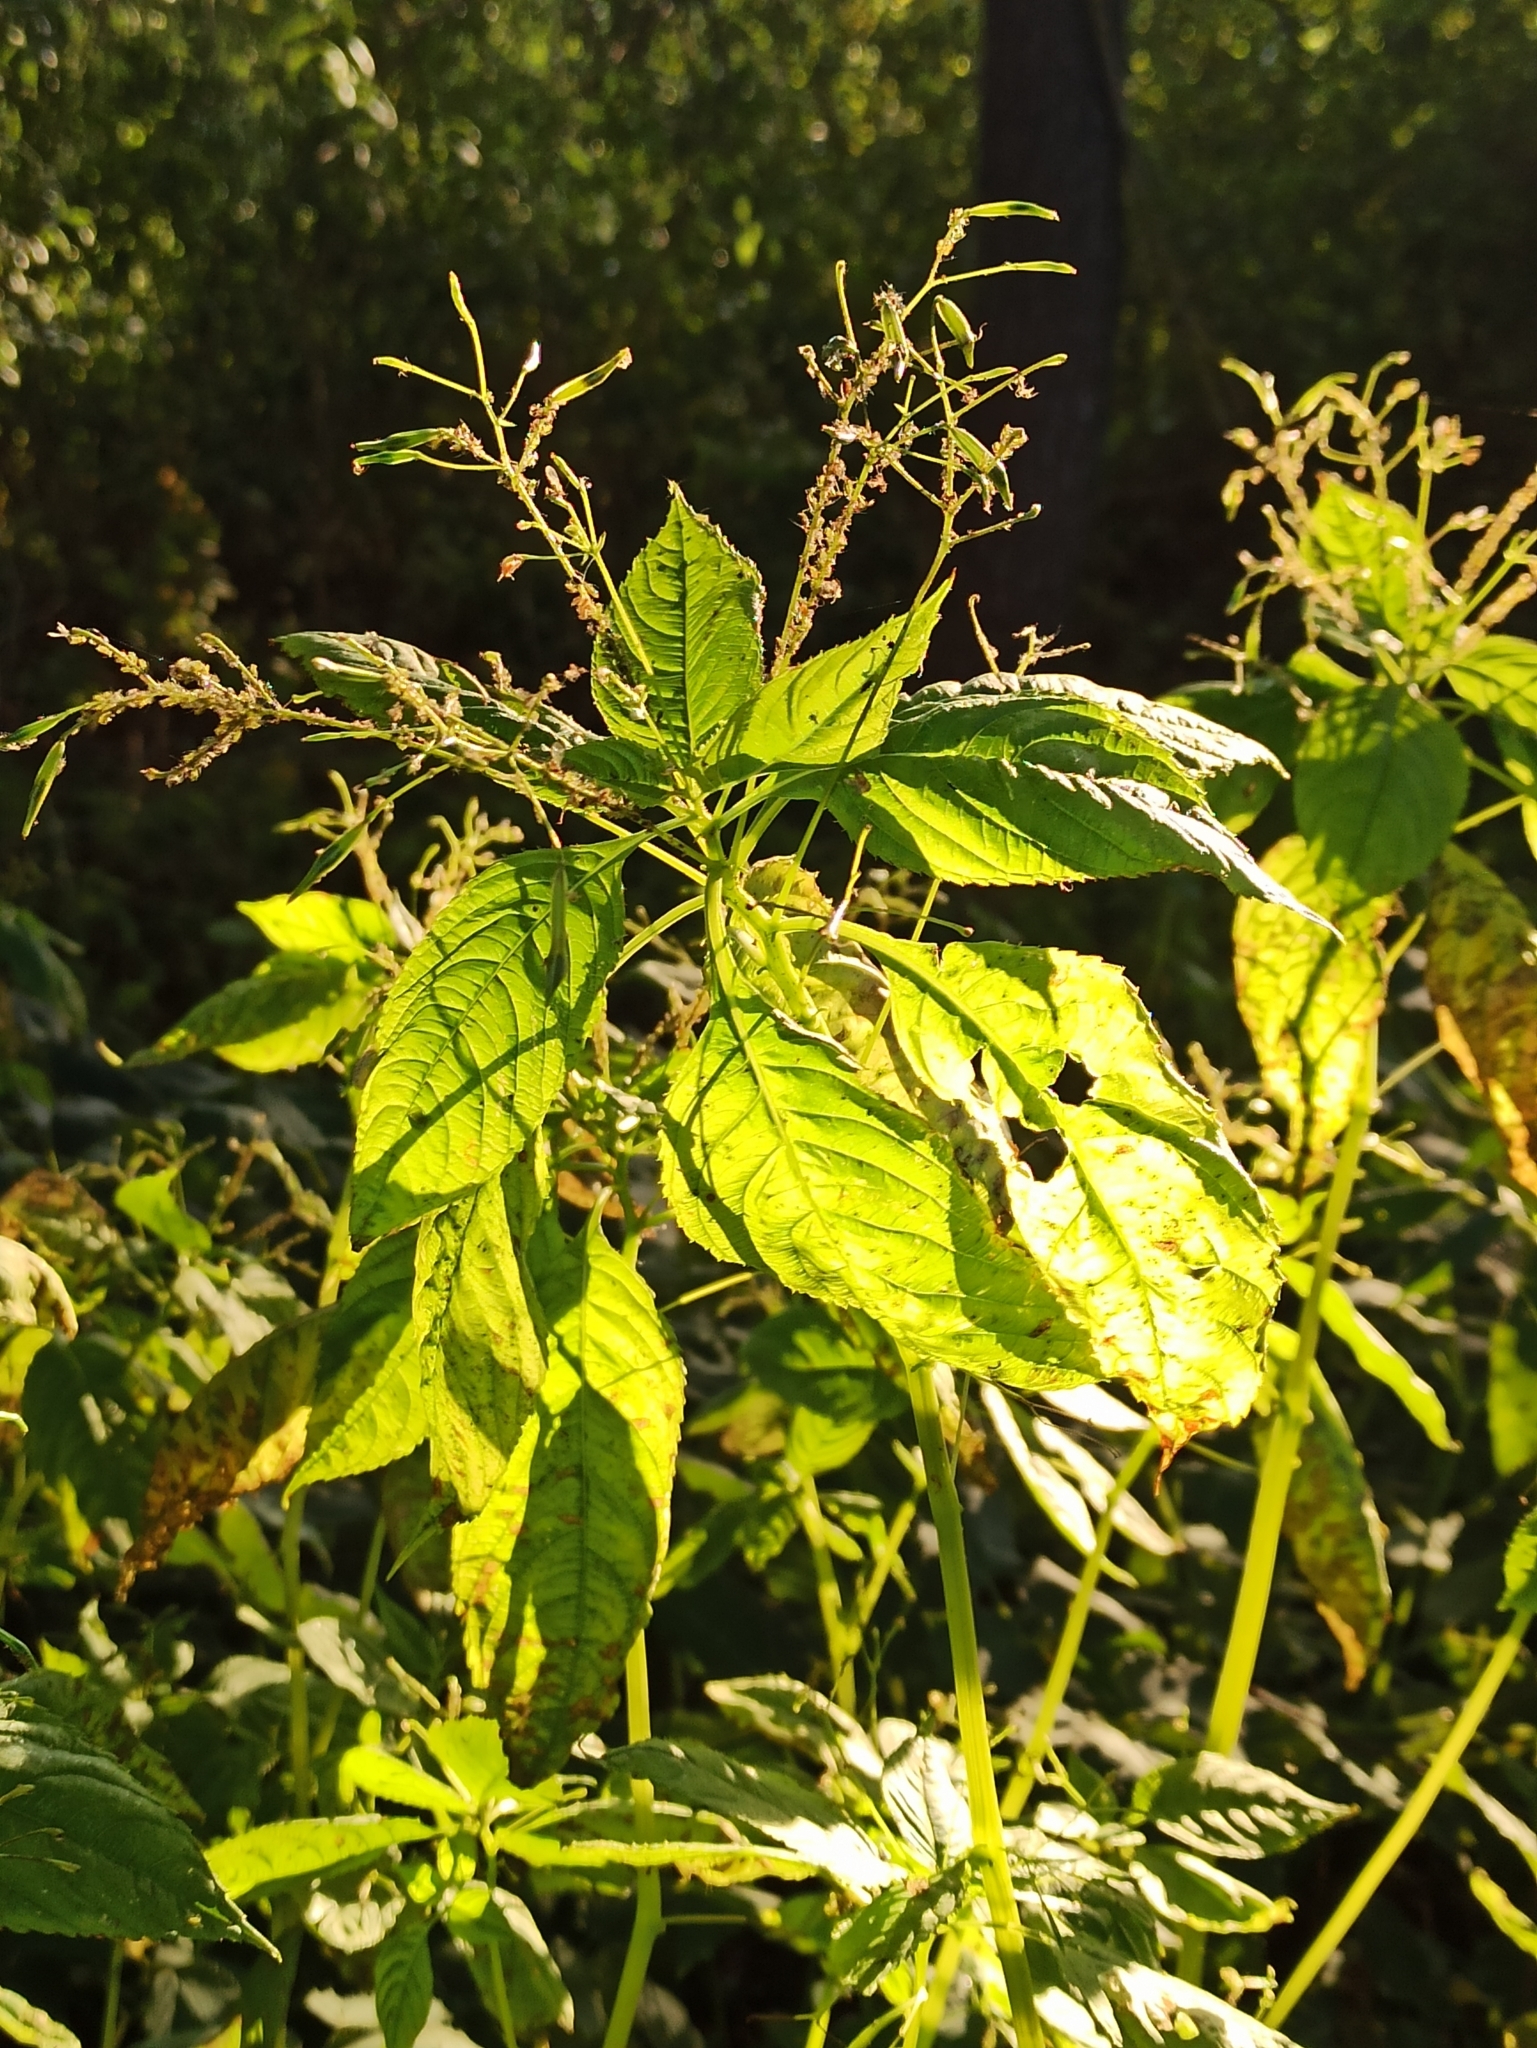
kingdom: Plantae
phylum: Tracheophyta
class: Magnoliopsida
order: Ericales
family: Balsaminaceae
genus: Impatiens
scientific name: Impatiens parviflora
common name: Small balsam
